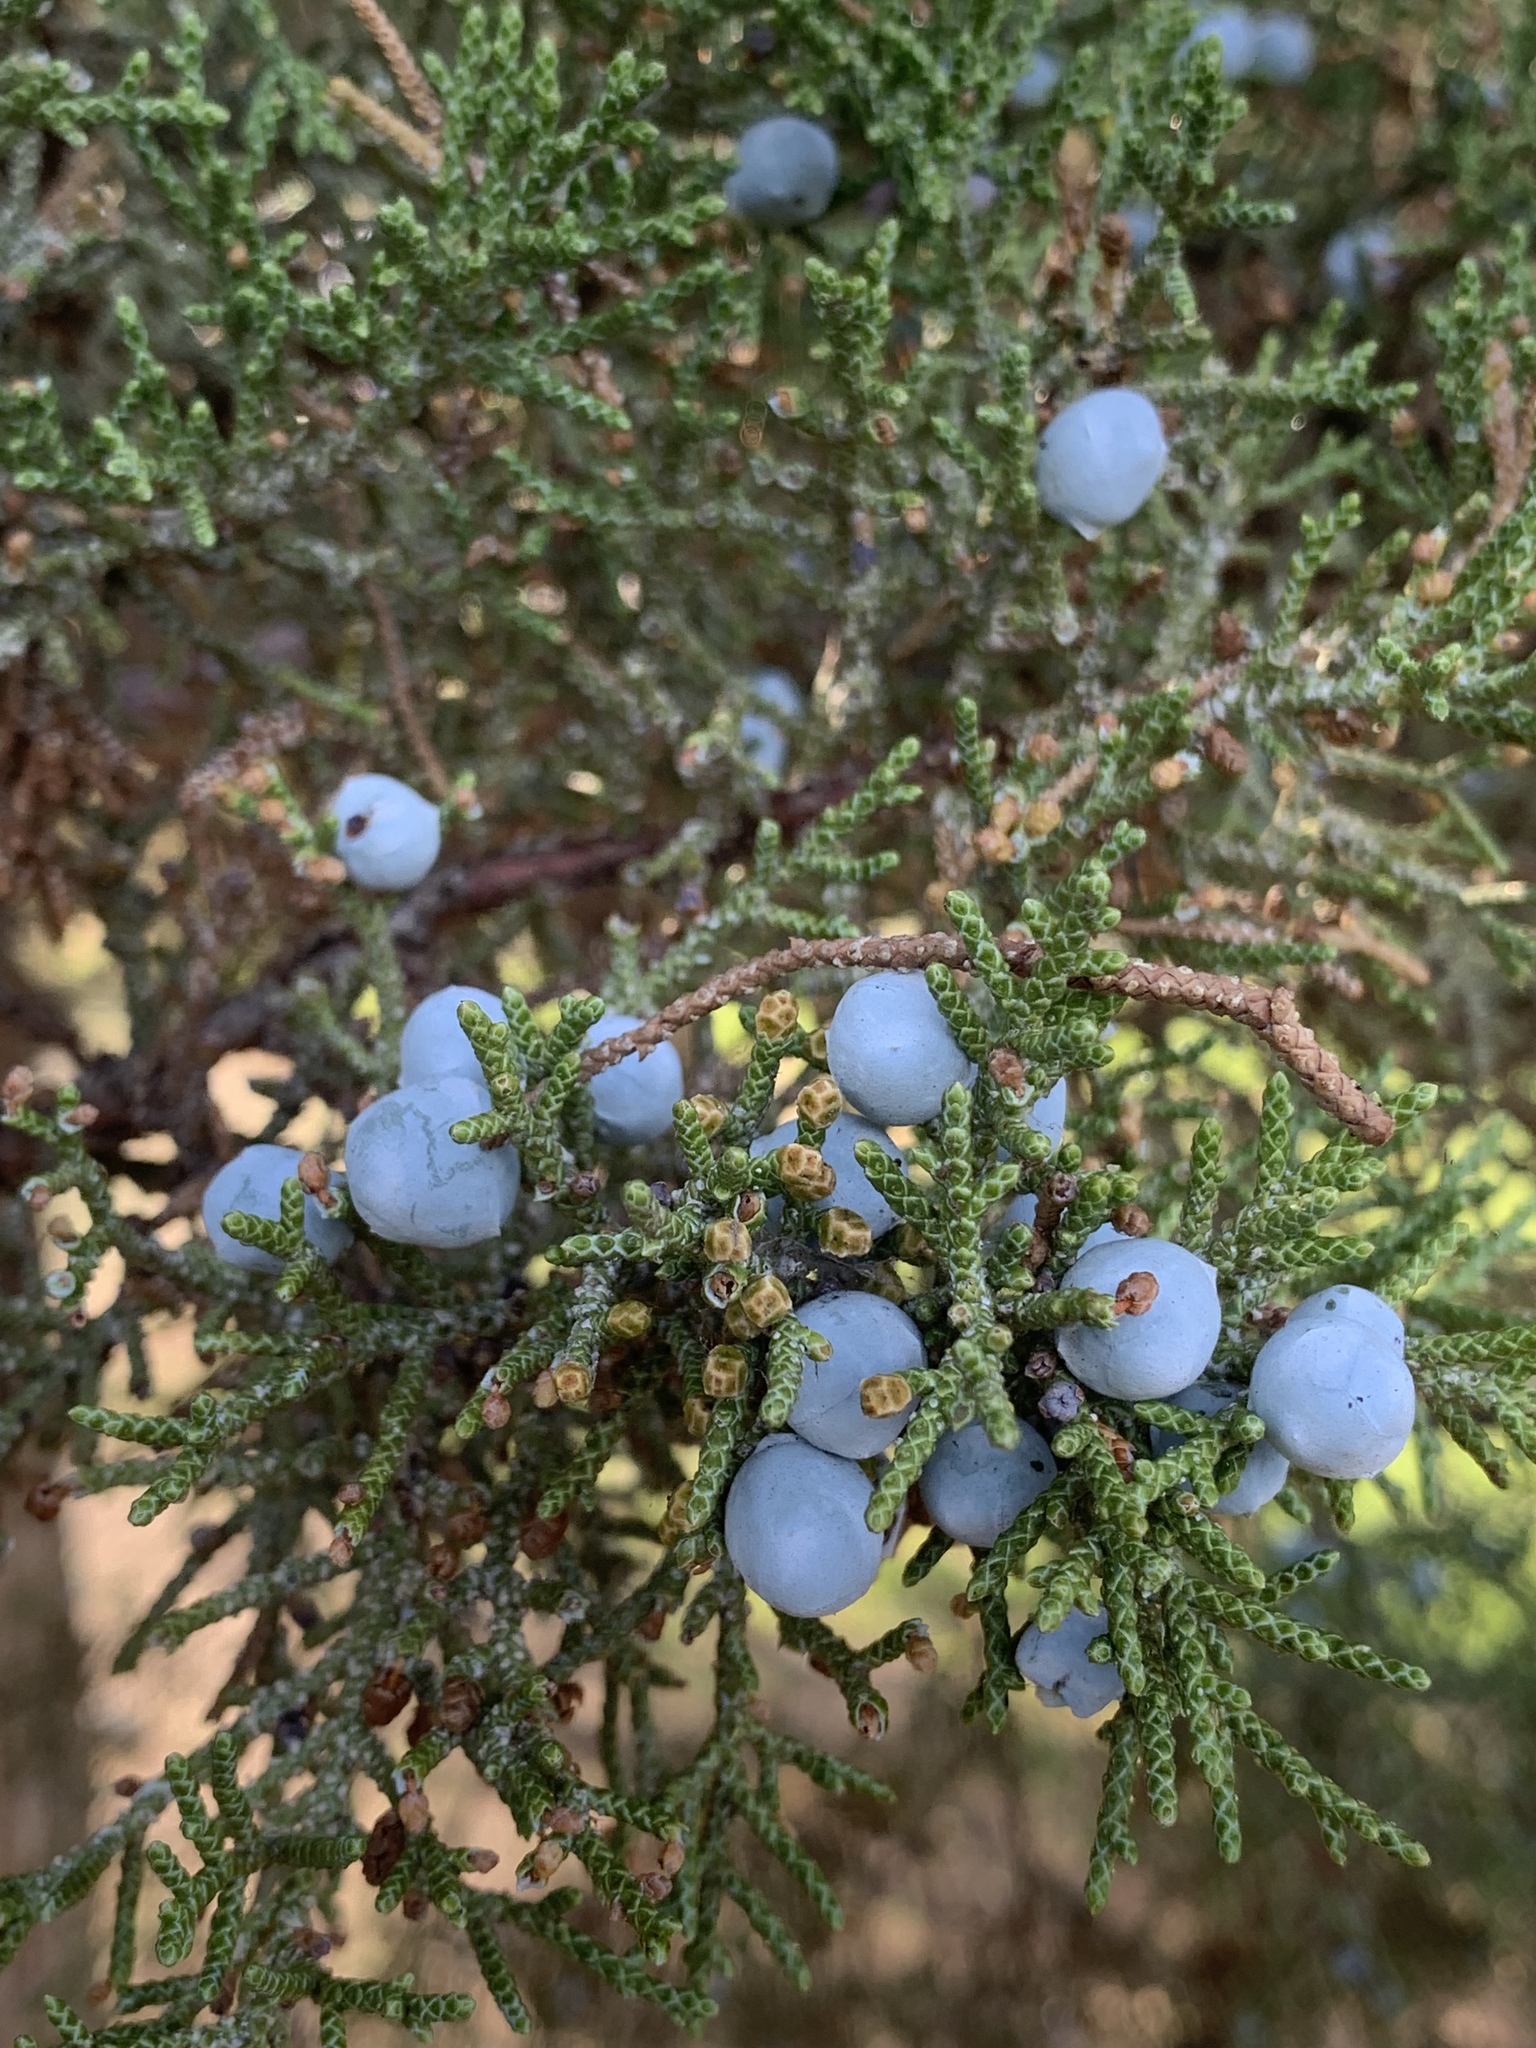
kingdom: Plantae
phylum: Tracheophyta
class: Pinopsida
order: Pinales
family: Cupressaceae
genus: Juniperus
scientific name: Juniperus occidentalis
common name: Western juniper
